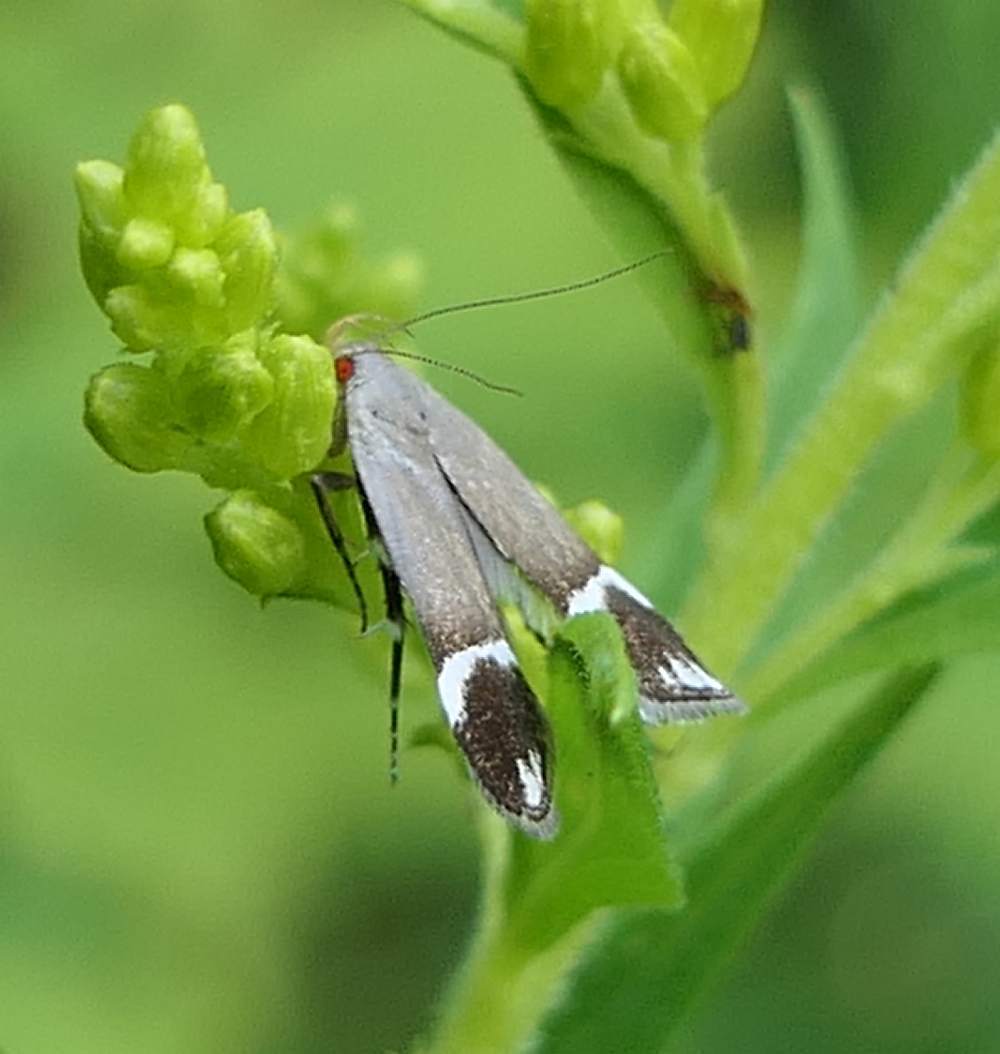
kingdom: Animalia
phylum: Arthropoda
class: Insecta
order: Lepidoptera
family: Gelechiidae
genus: Anacampsis
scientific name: Anacampsis tristrigella
